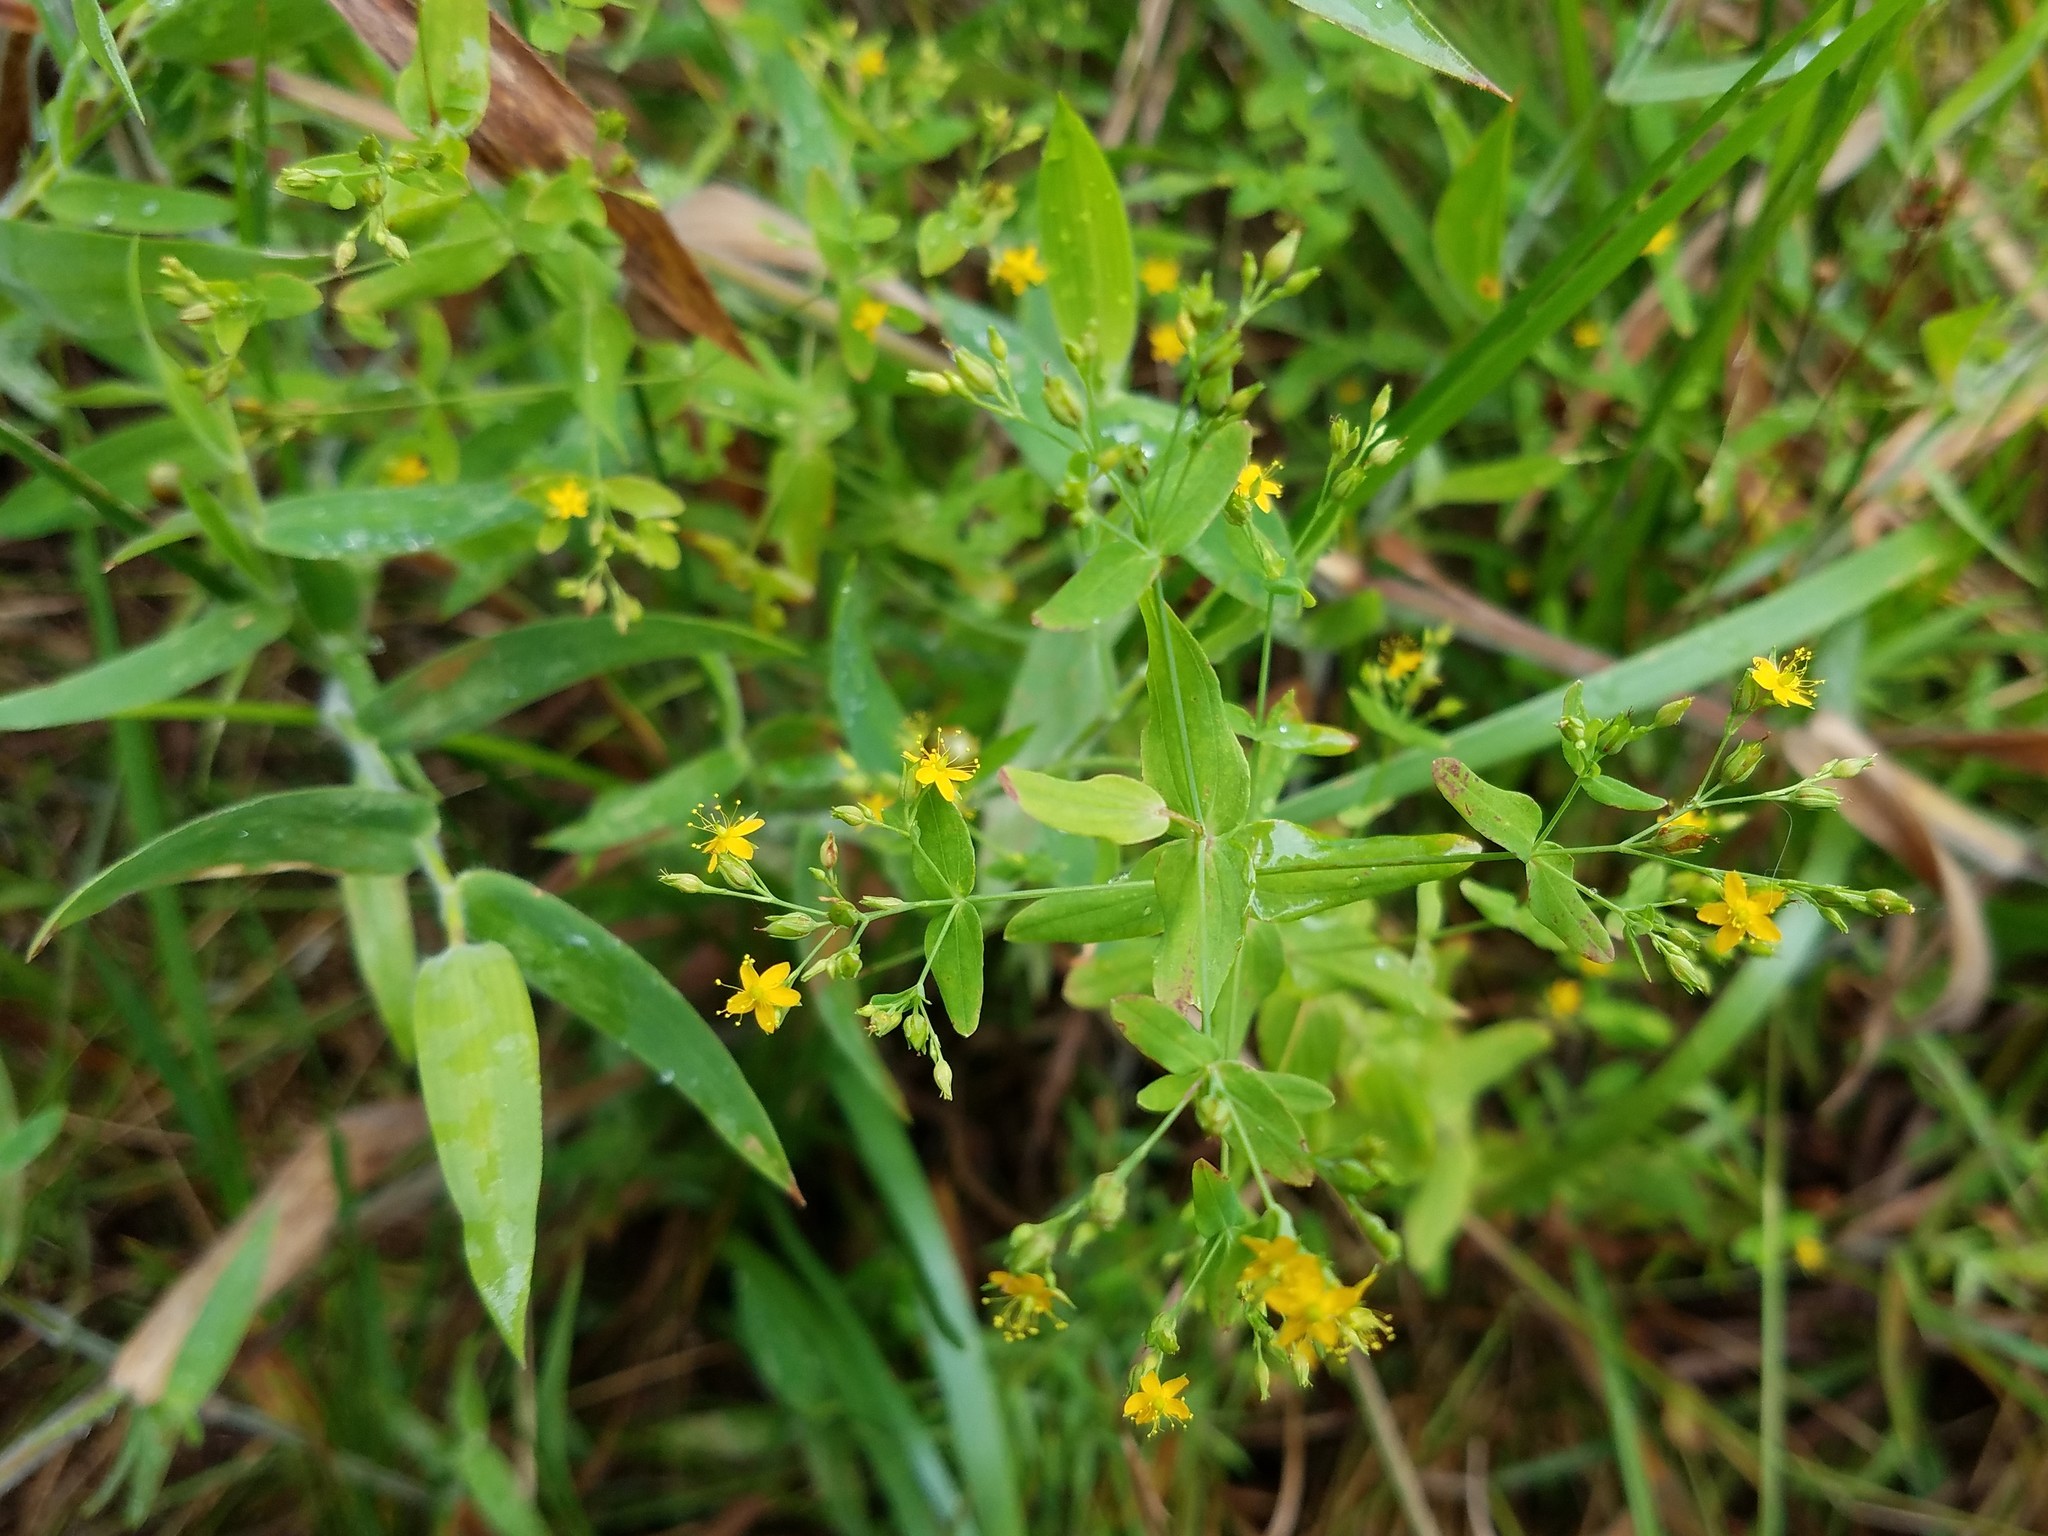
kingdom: Plantae
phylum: Tracheophyta
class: Magnoliopsida
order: Malpighiales
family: Hypericaceae
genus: Hypericum
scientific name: Hypericum mutilum
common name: Dwarf st. john's-wort
